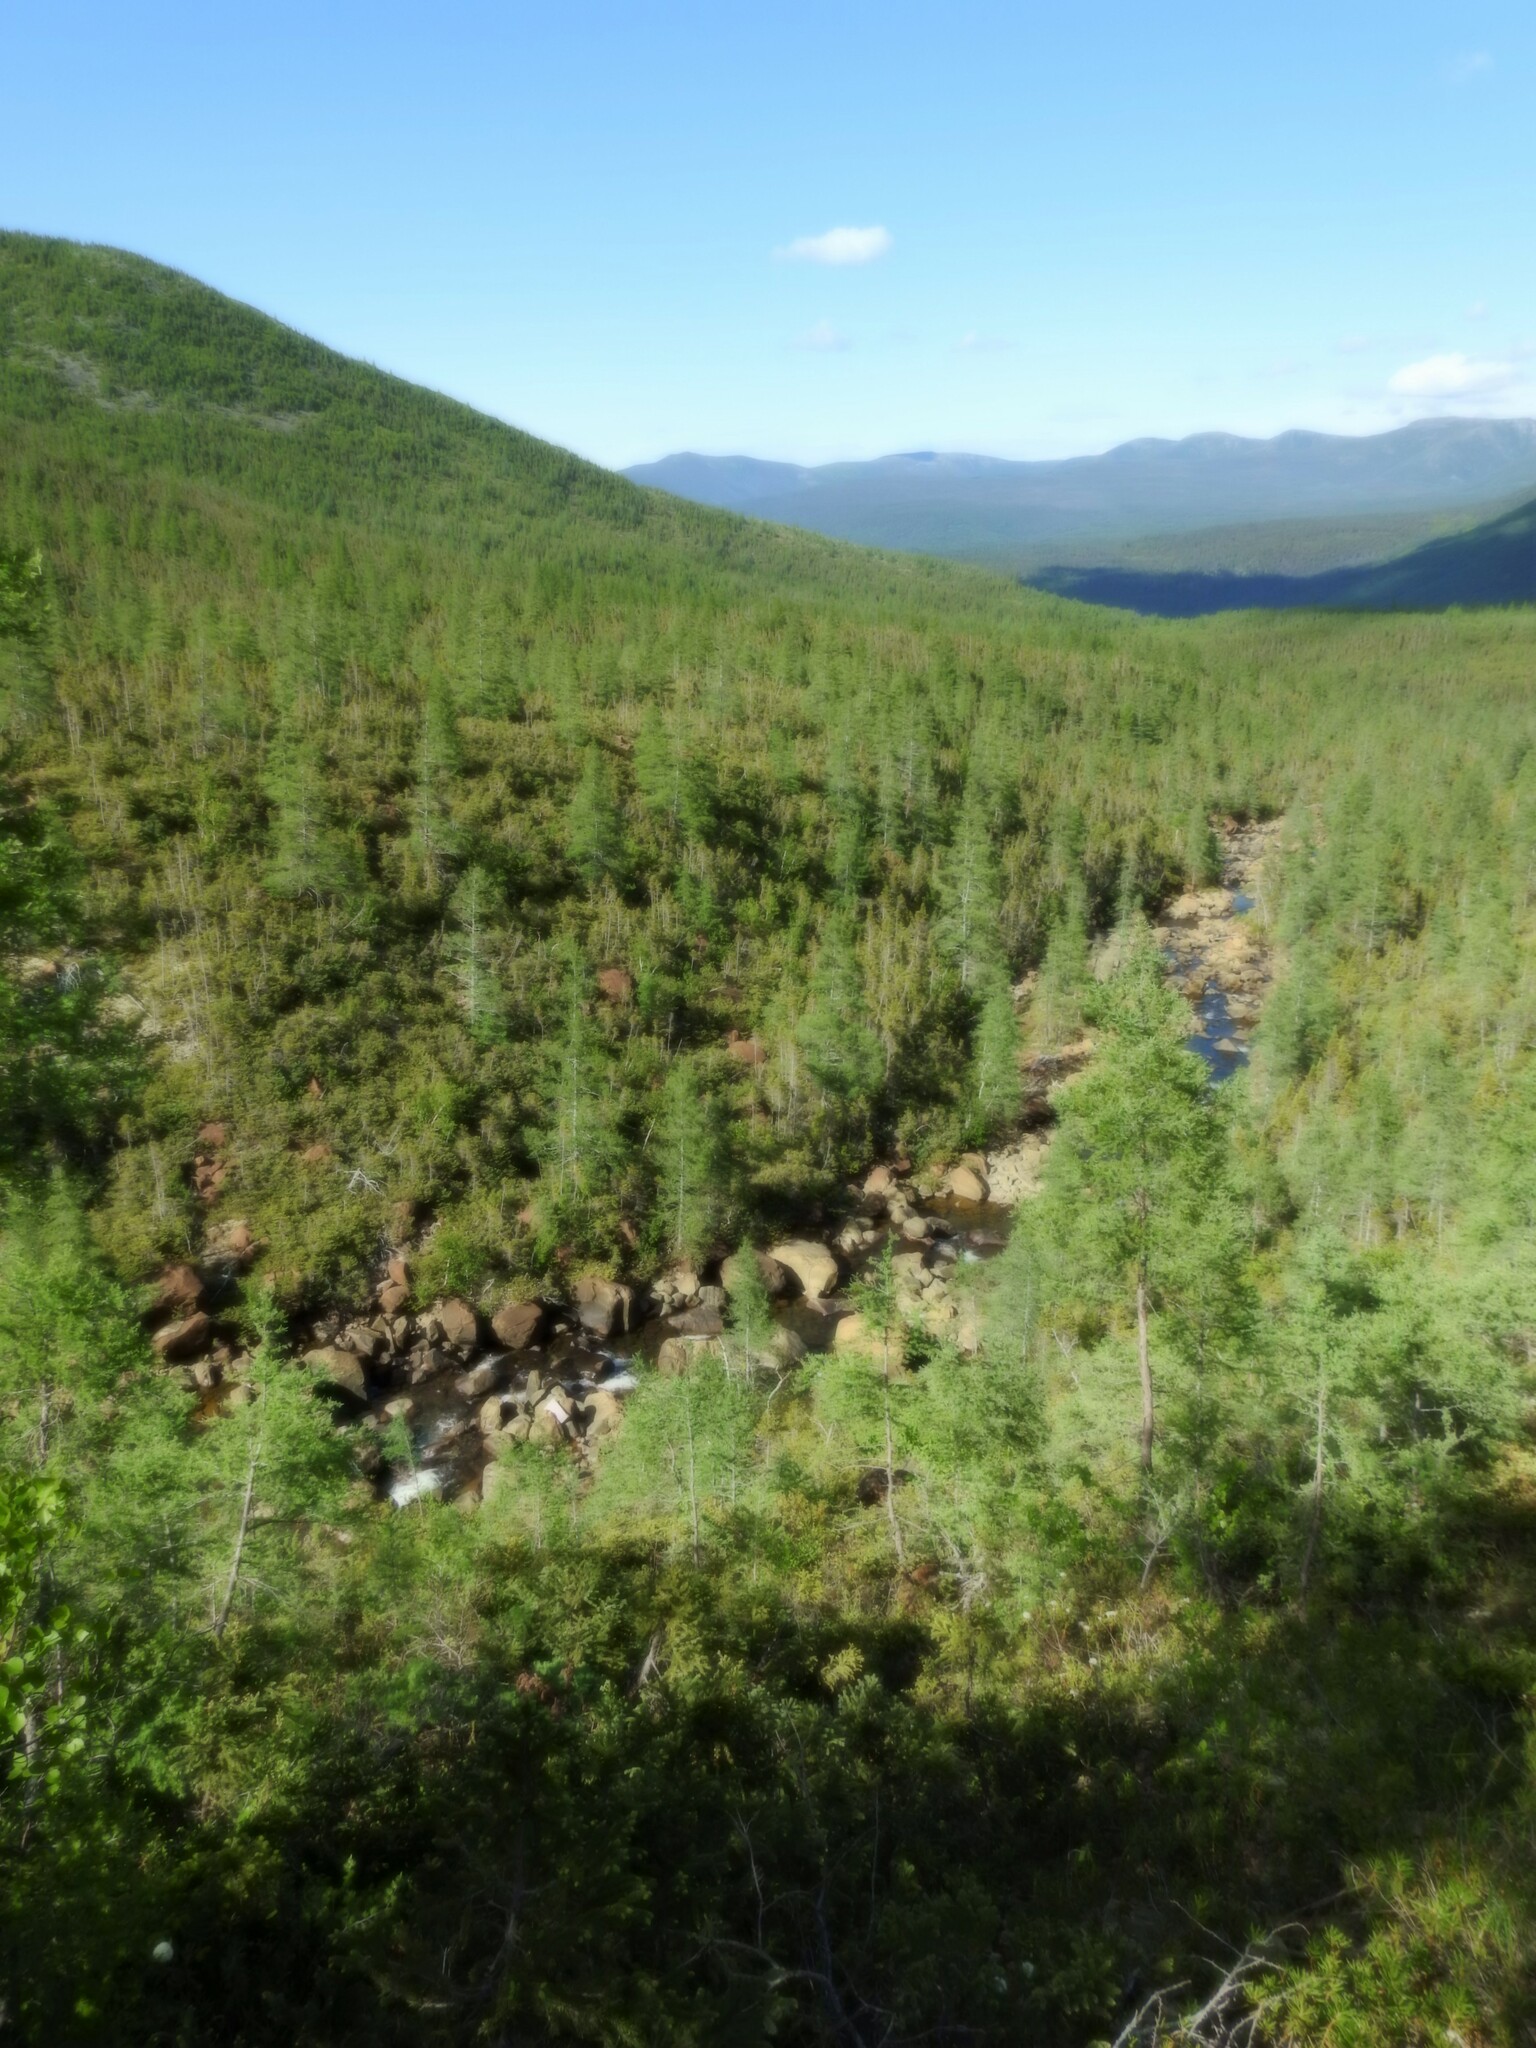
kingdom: Plantae
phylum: Tracheophyta
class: Pinopsida
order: Pinales
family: Pinaceae
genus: Larix
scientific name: Larix laricina
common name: American larch
